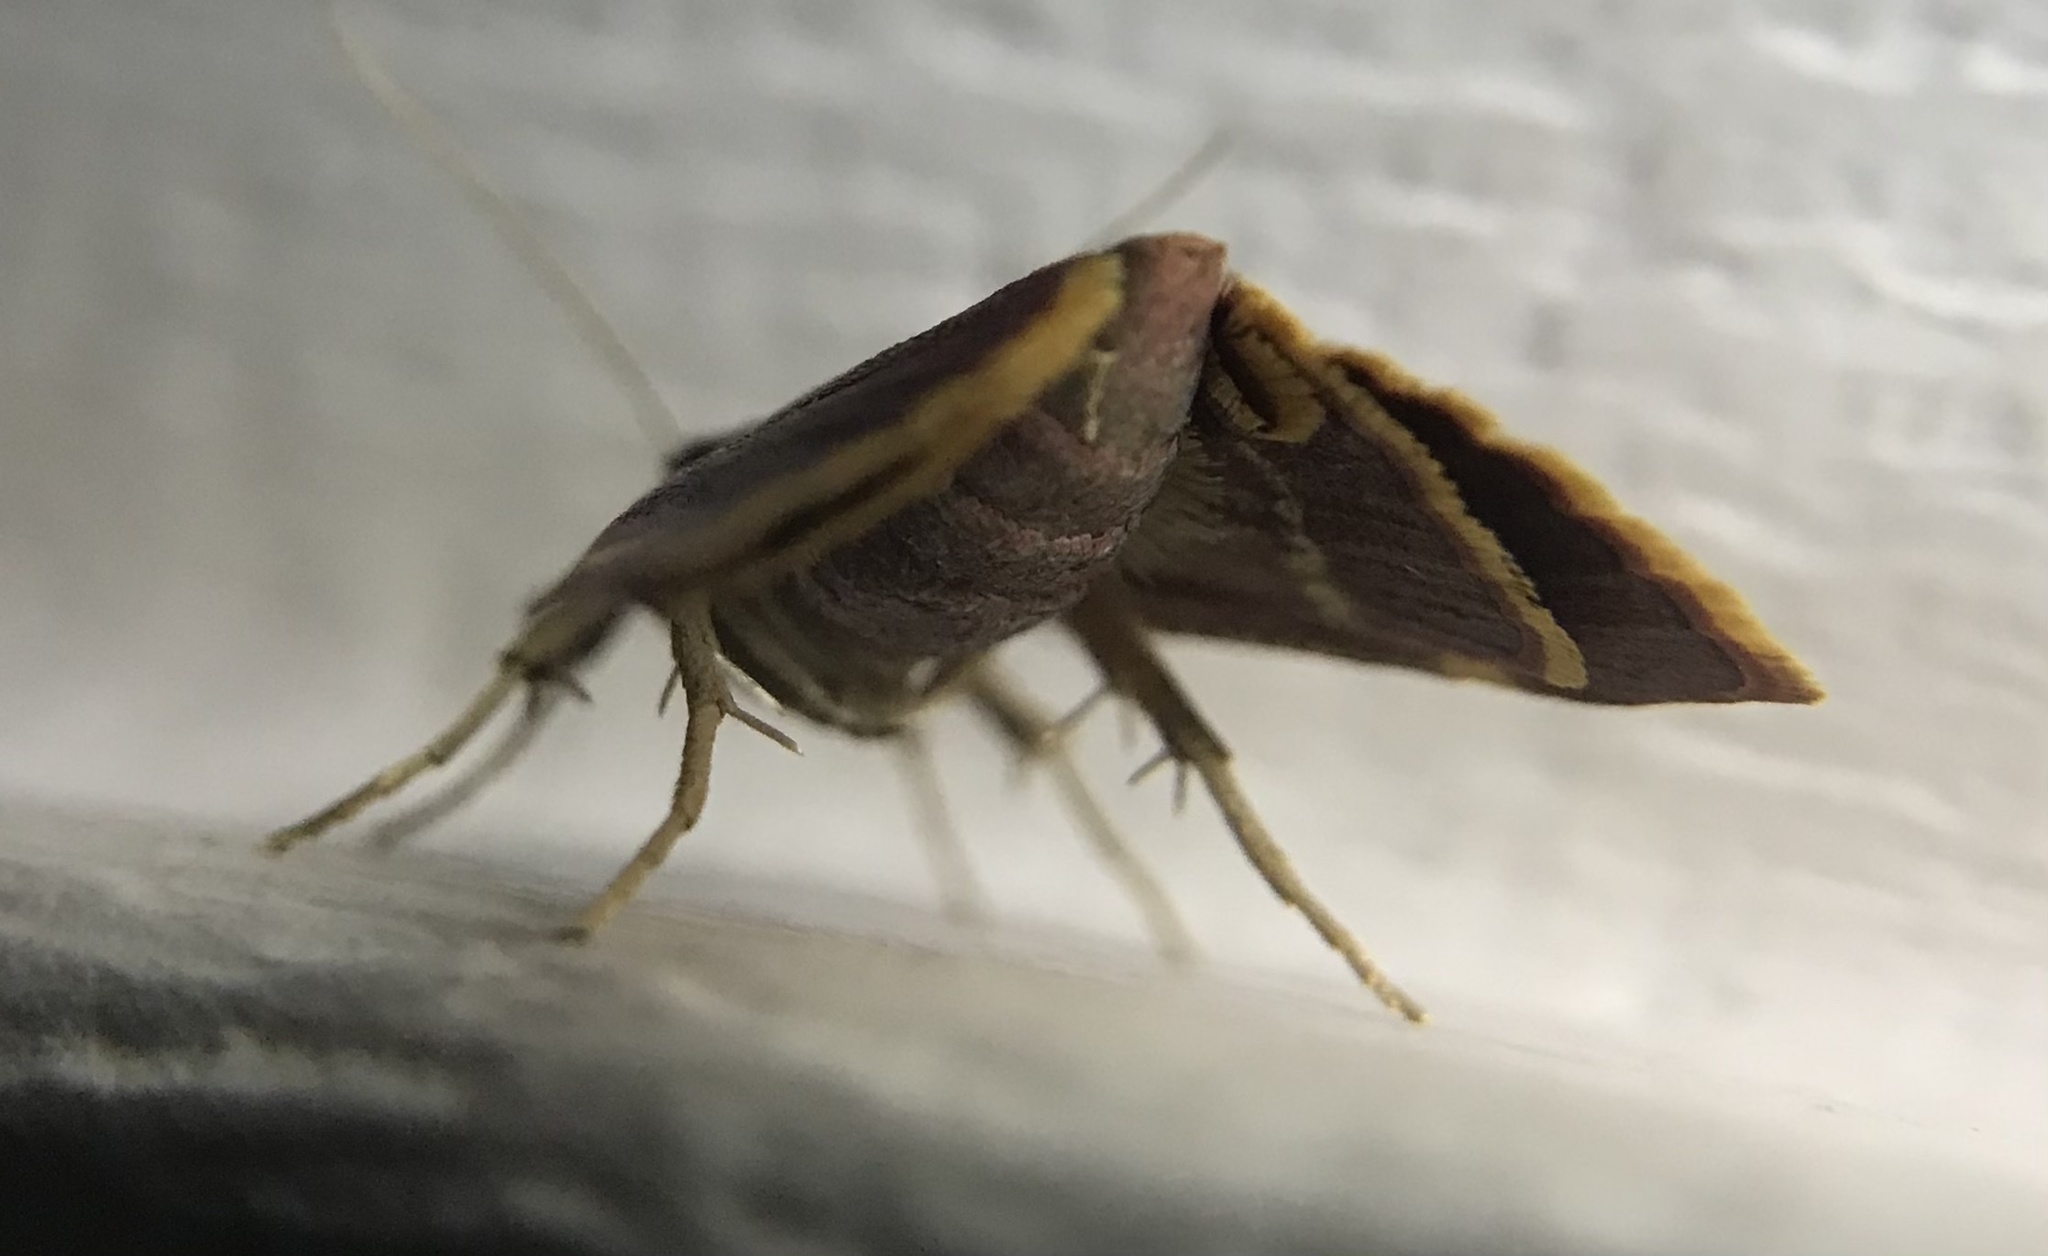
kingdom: Animalia
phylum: Arthropoda
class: Insecta
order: Lepidoptera
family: Pyralidae
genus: Hypsopygia
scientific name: Hypsopygia olinalis
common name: Yellow-fringed dolichomia moth
